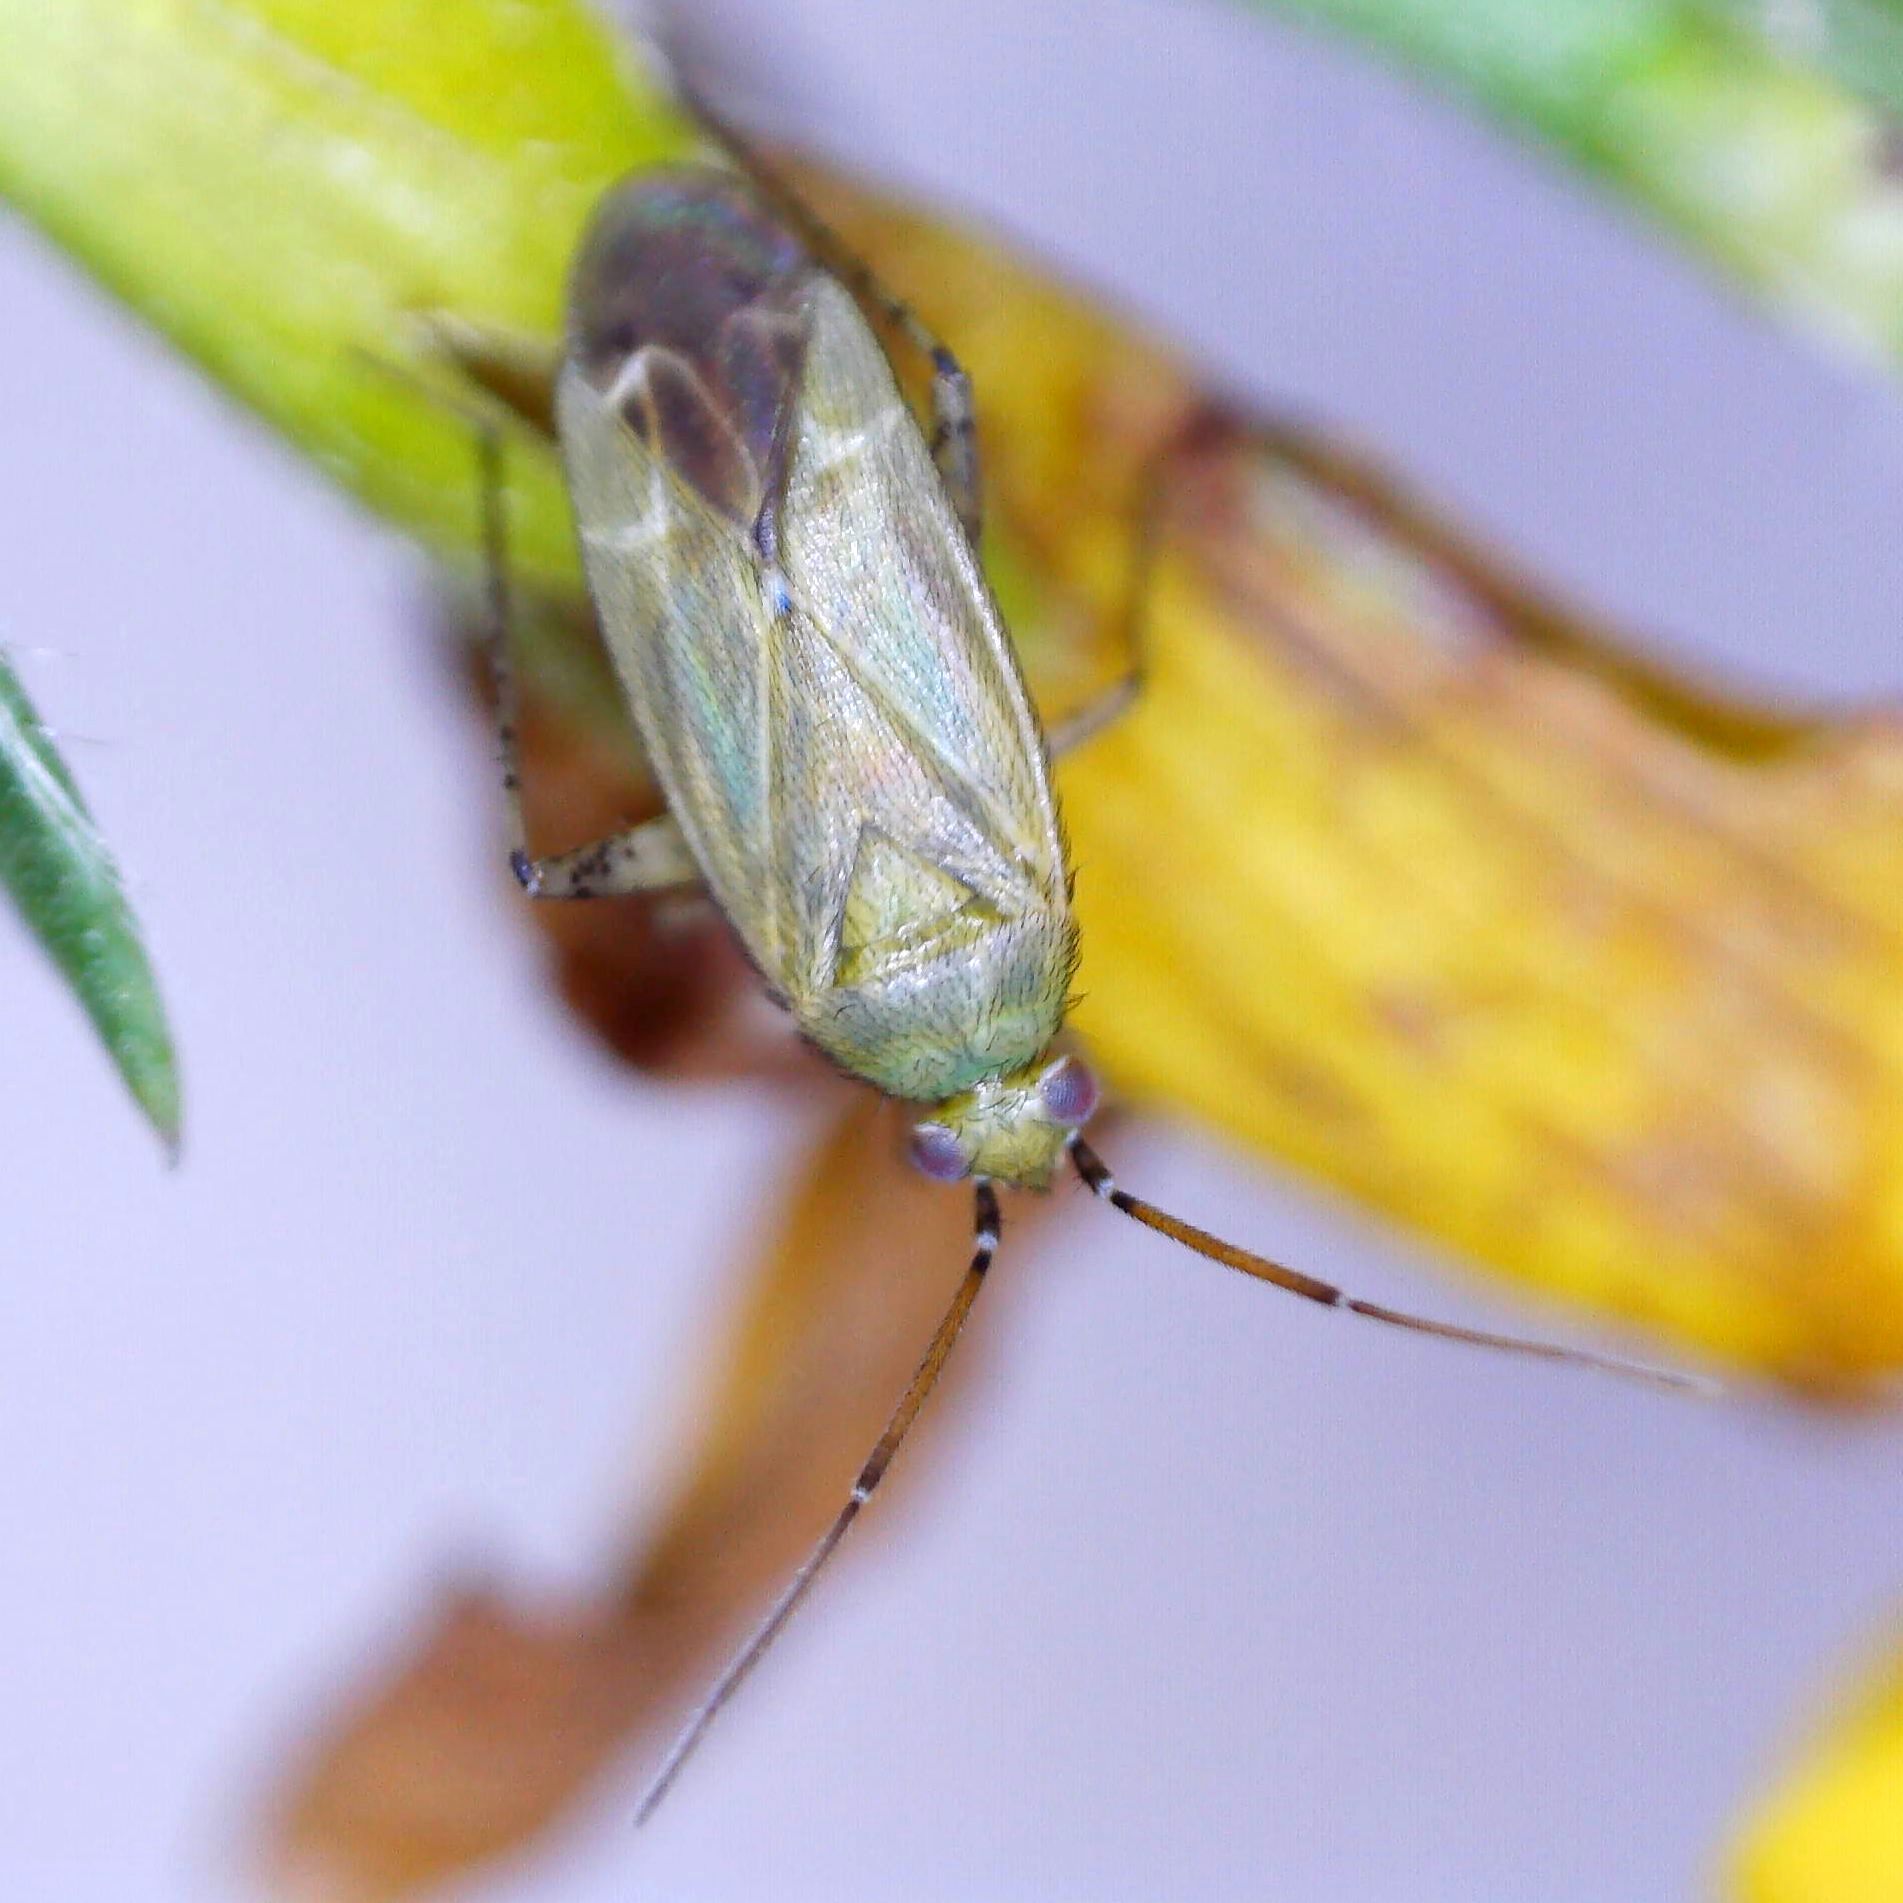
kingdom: Animalia
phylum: Arthropoda
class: Insecta
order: Hemiptera
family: Miridae
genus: Plagiognathus
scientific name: Plagiognathus chrysanthemi
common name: Plant bug
